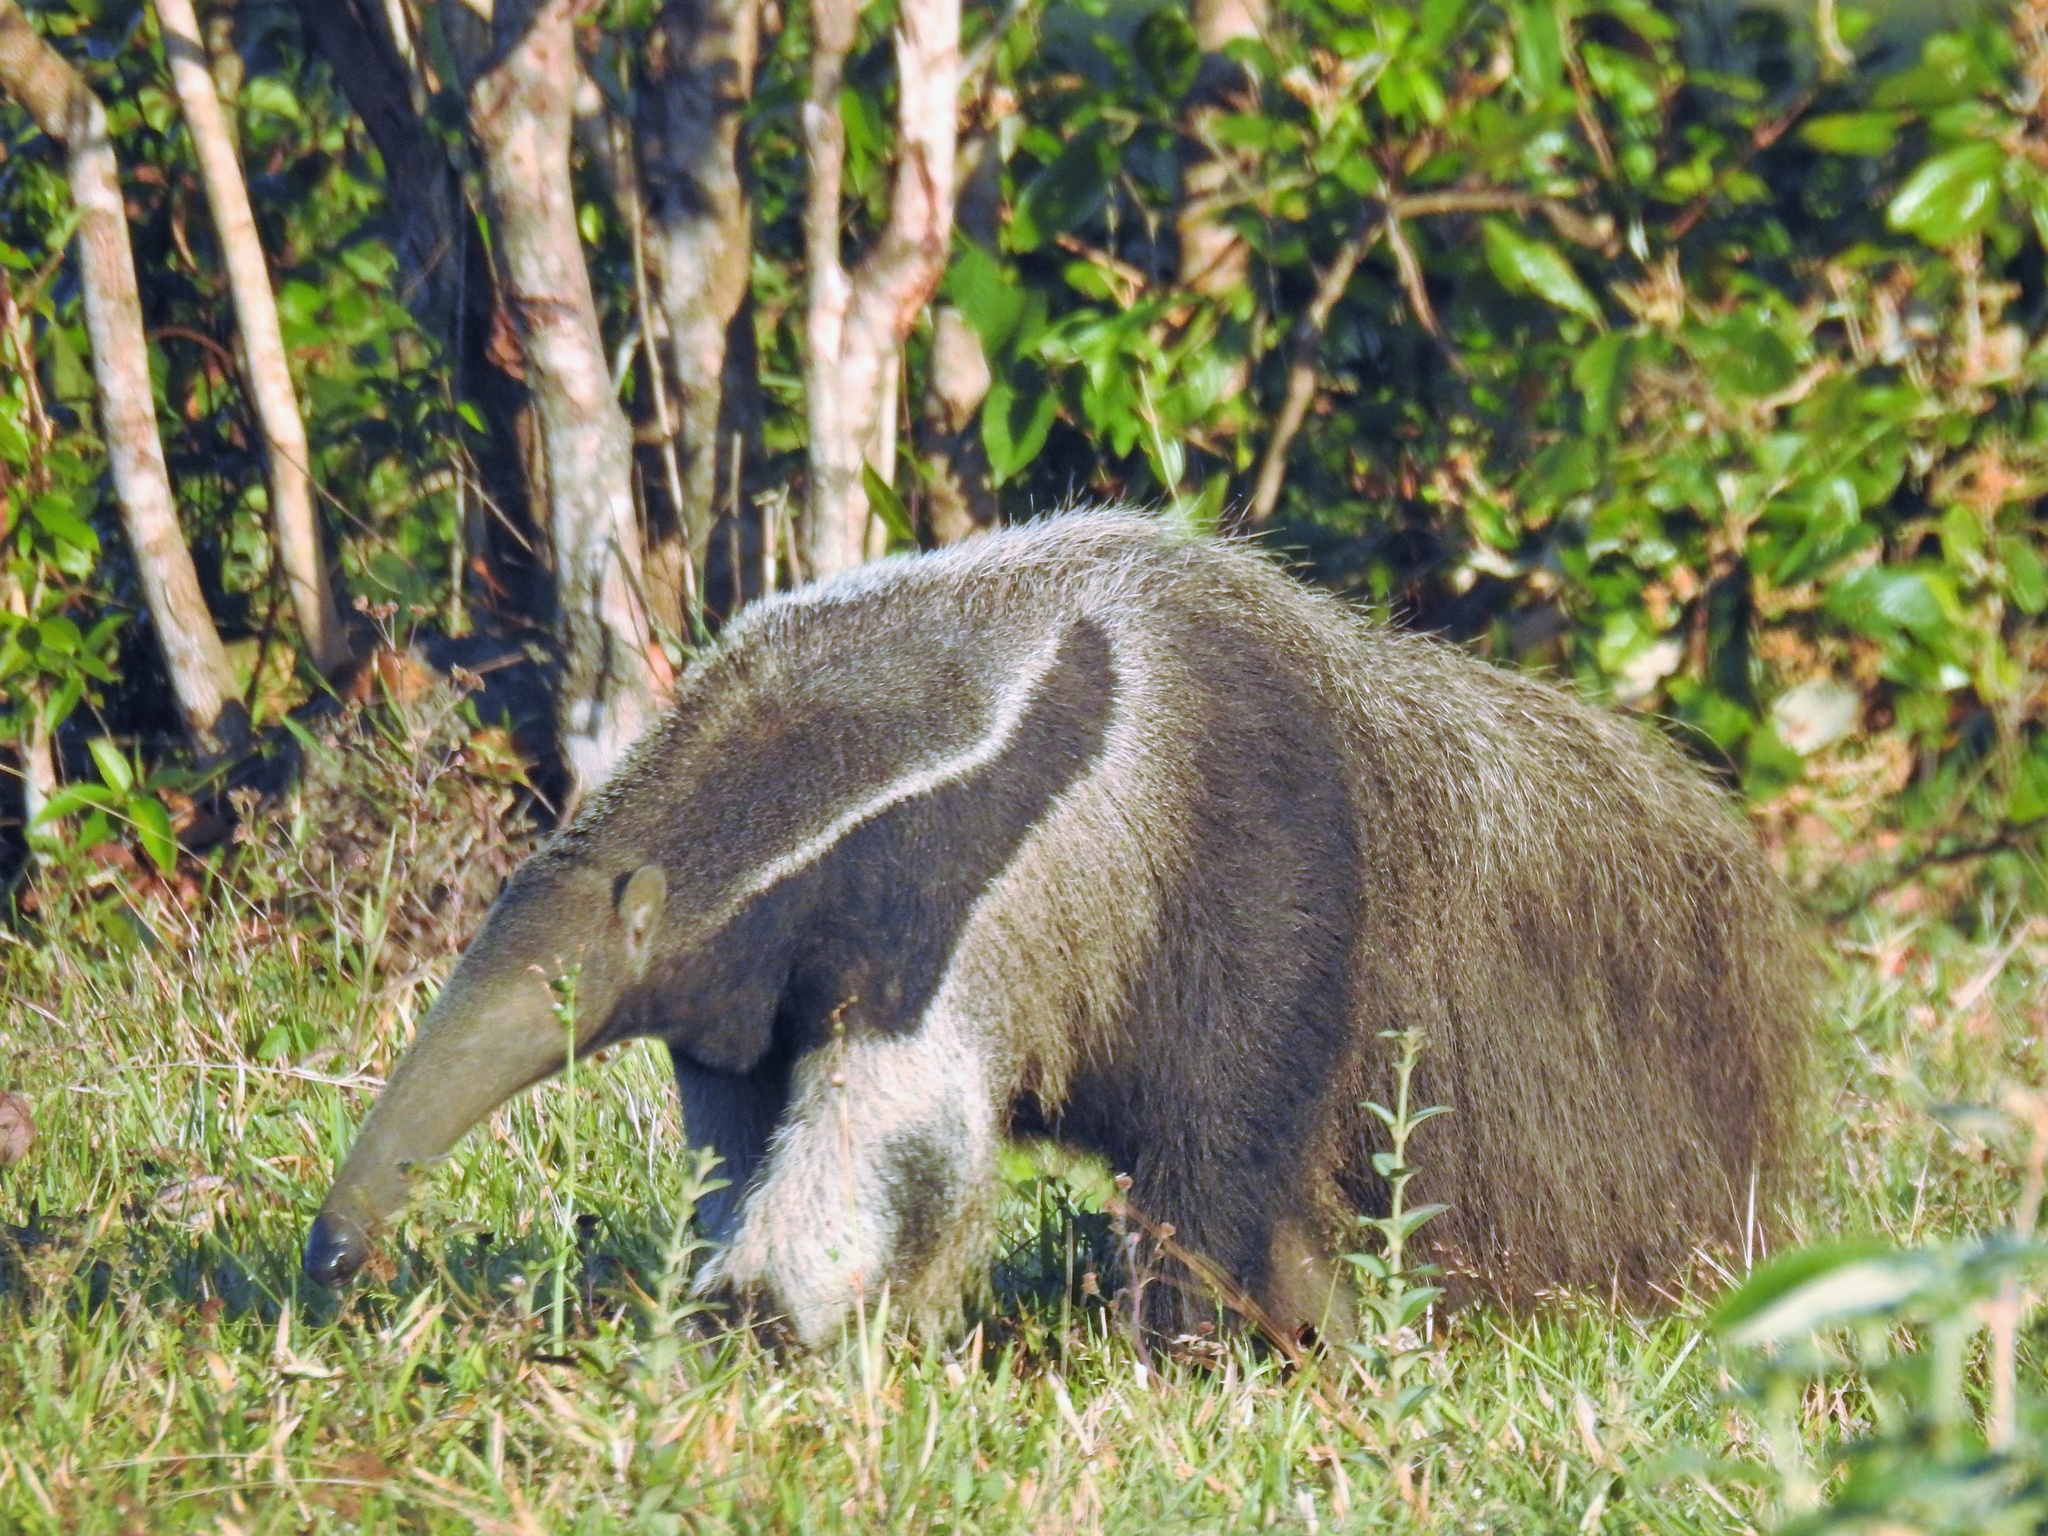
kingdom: Animalia
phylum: Chordata
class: Mammalia
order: Pilosa
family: Myrmecophagidae
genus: Myrmecophaga
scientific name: Myrmecophaga tridactyla
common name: Giant anteater
